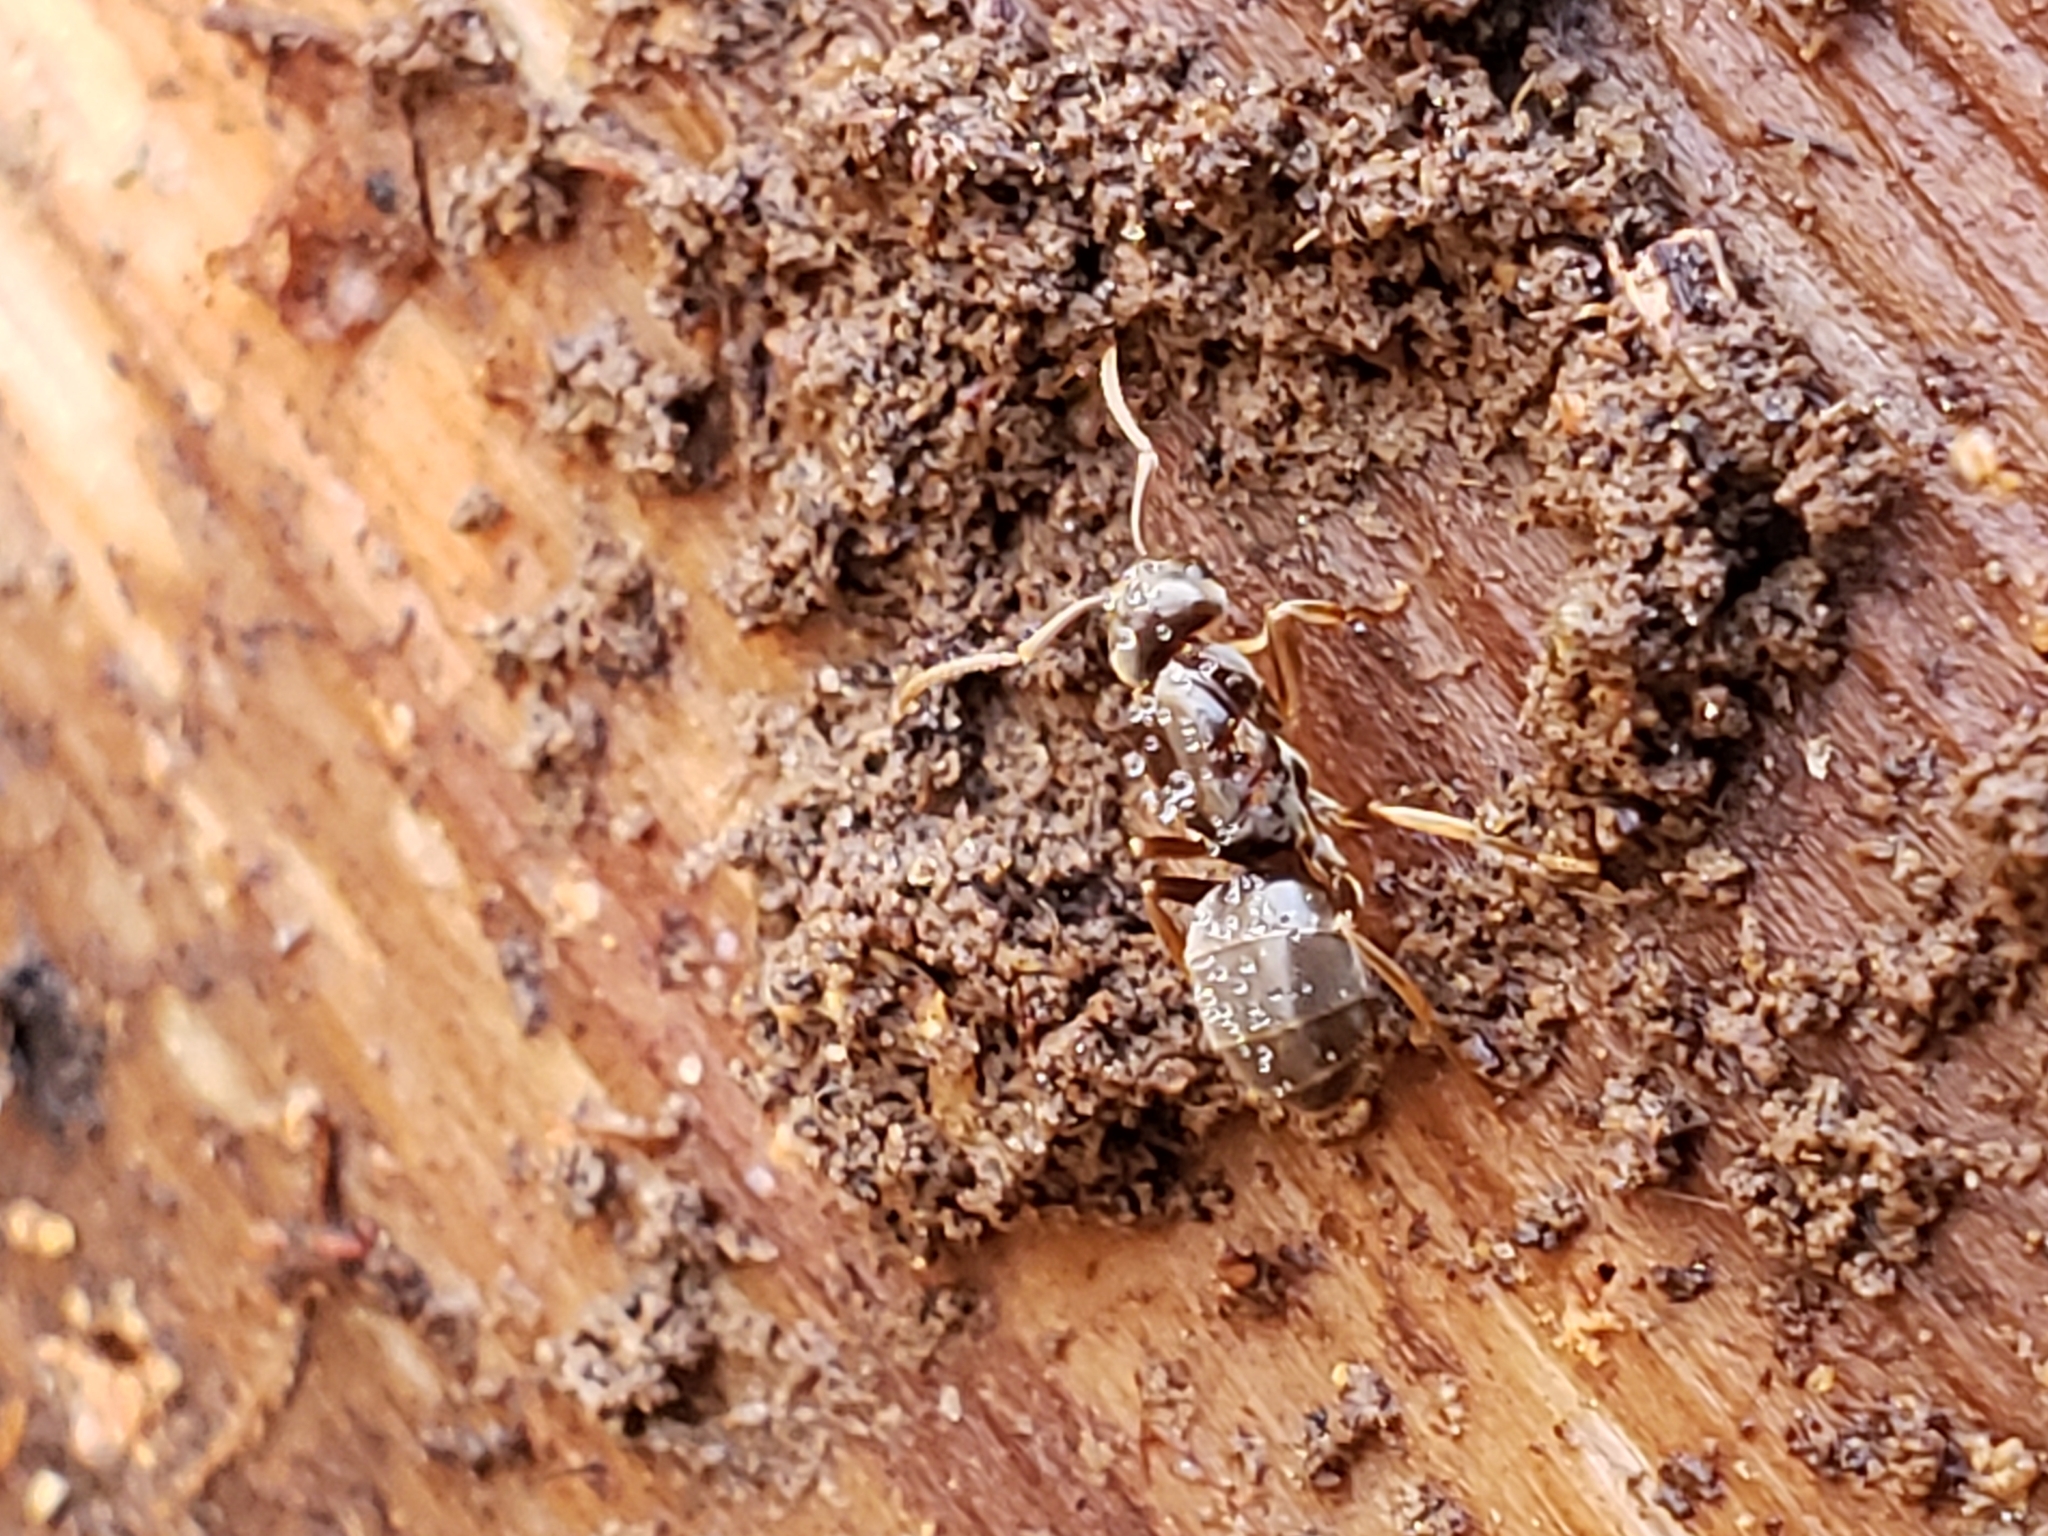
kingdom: Animalia
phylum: Arthropoda
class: Insecta
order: Hymenoptera
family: Formicidae
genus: Lasius
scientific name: Lasius aphidicola
